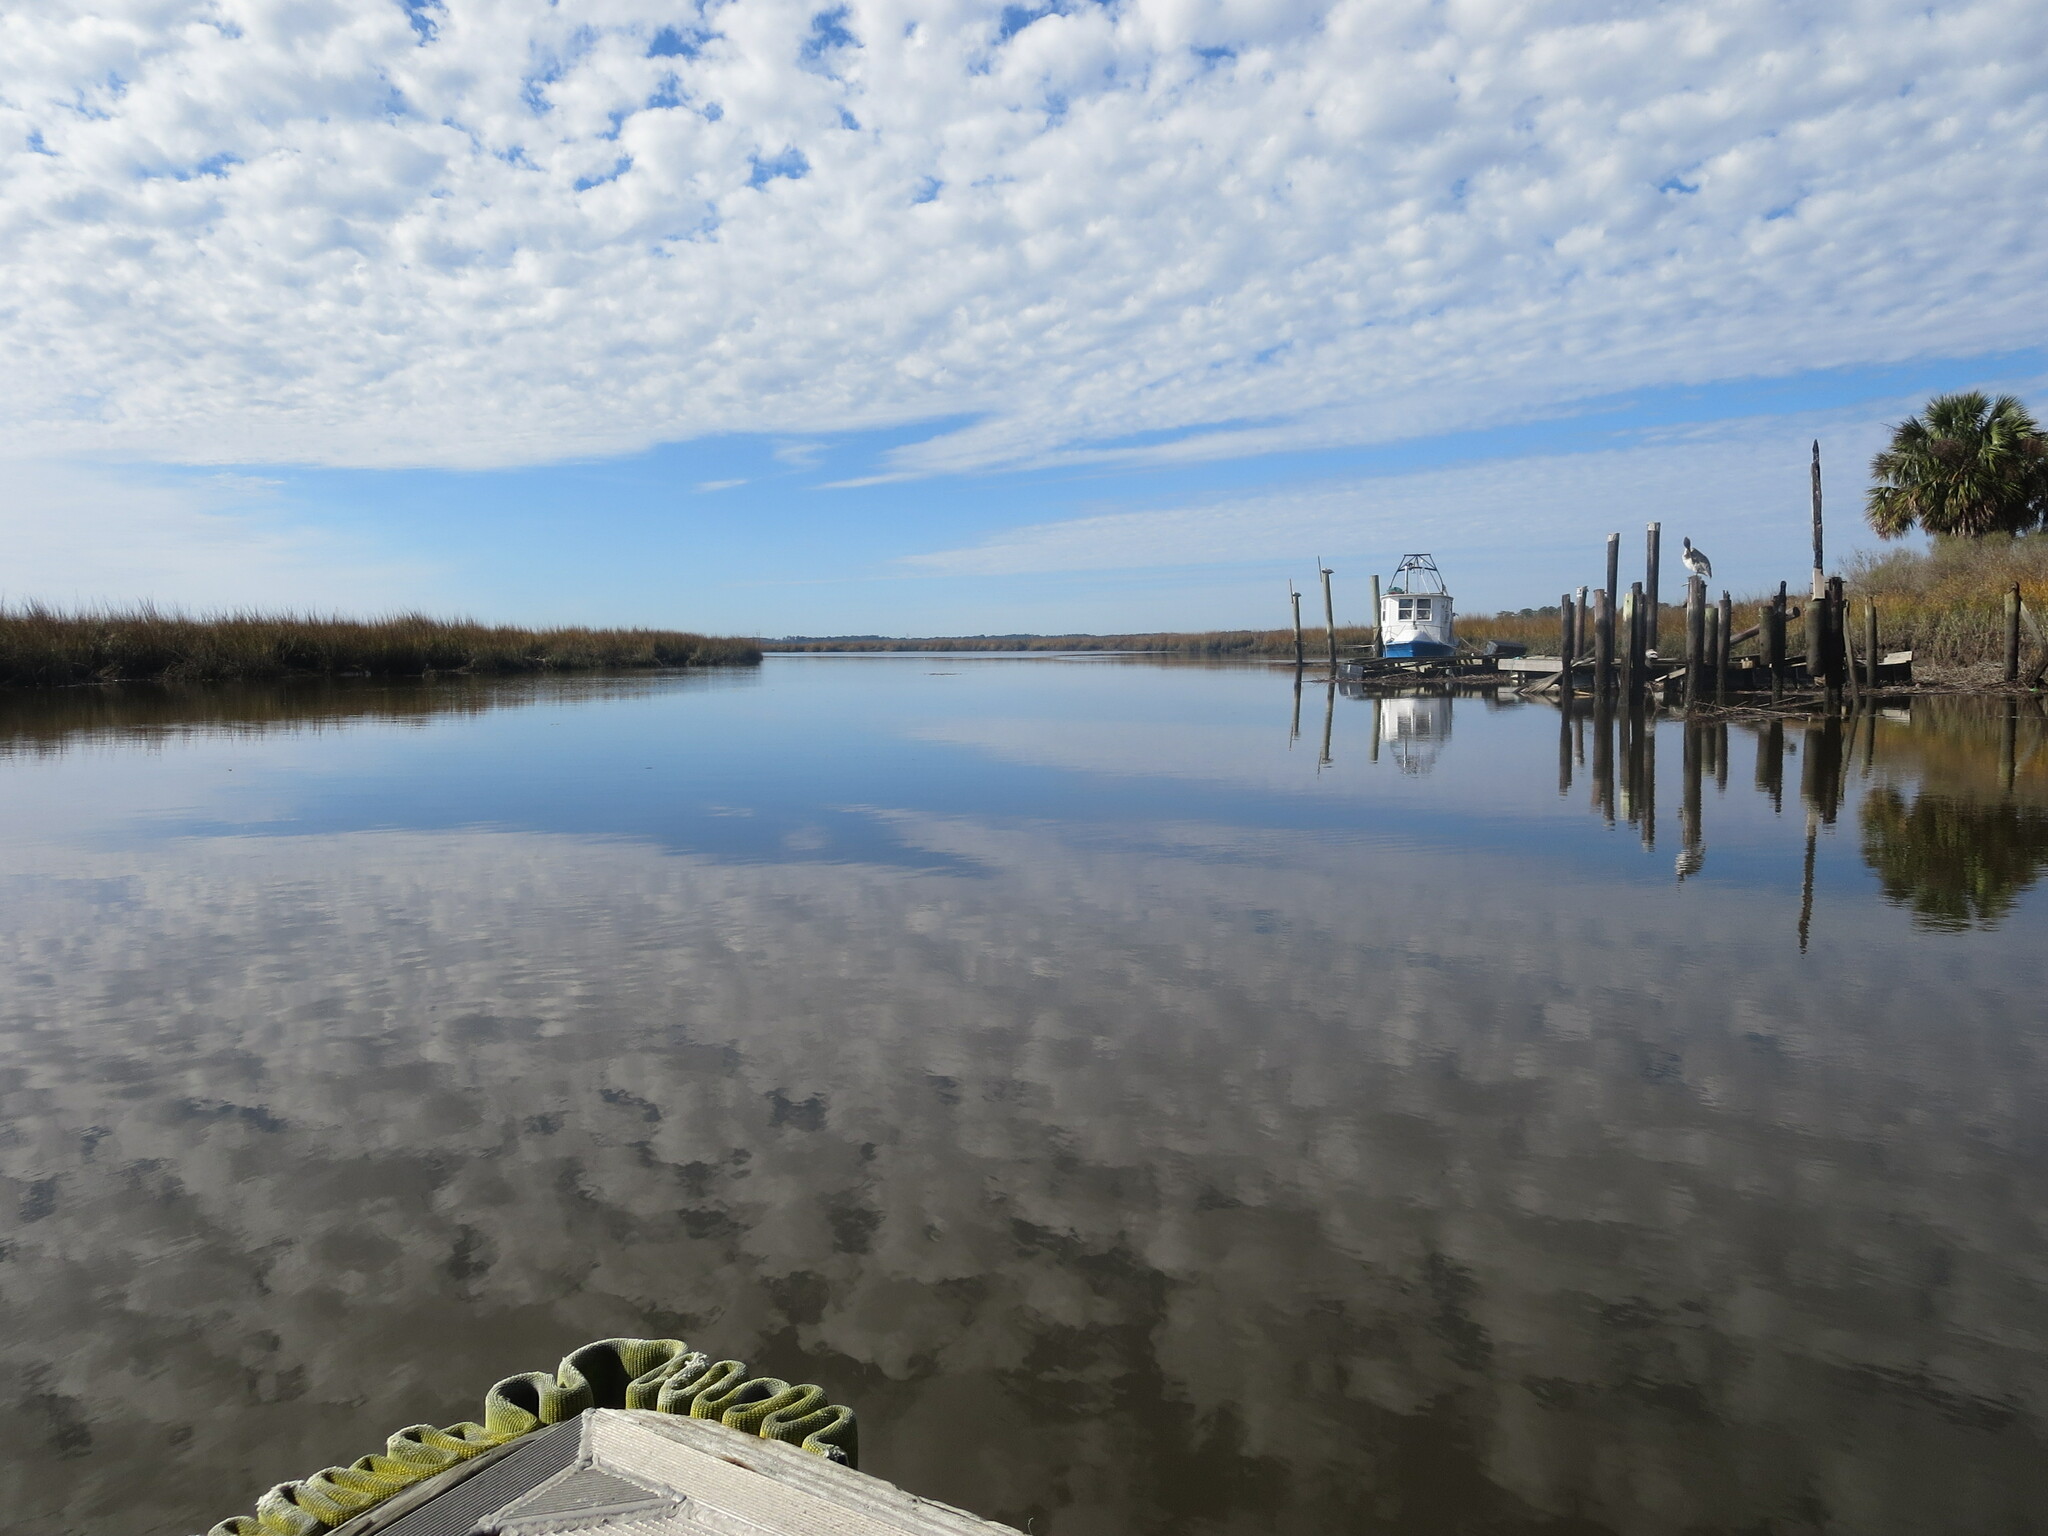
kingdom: Animalia
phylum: Chordata
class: Aves
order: Pelecaniformes
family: Pelecanidae
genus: Pelecanus
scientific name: Pelecanus occidentalis
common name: Brown pelican
